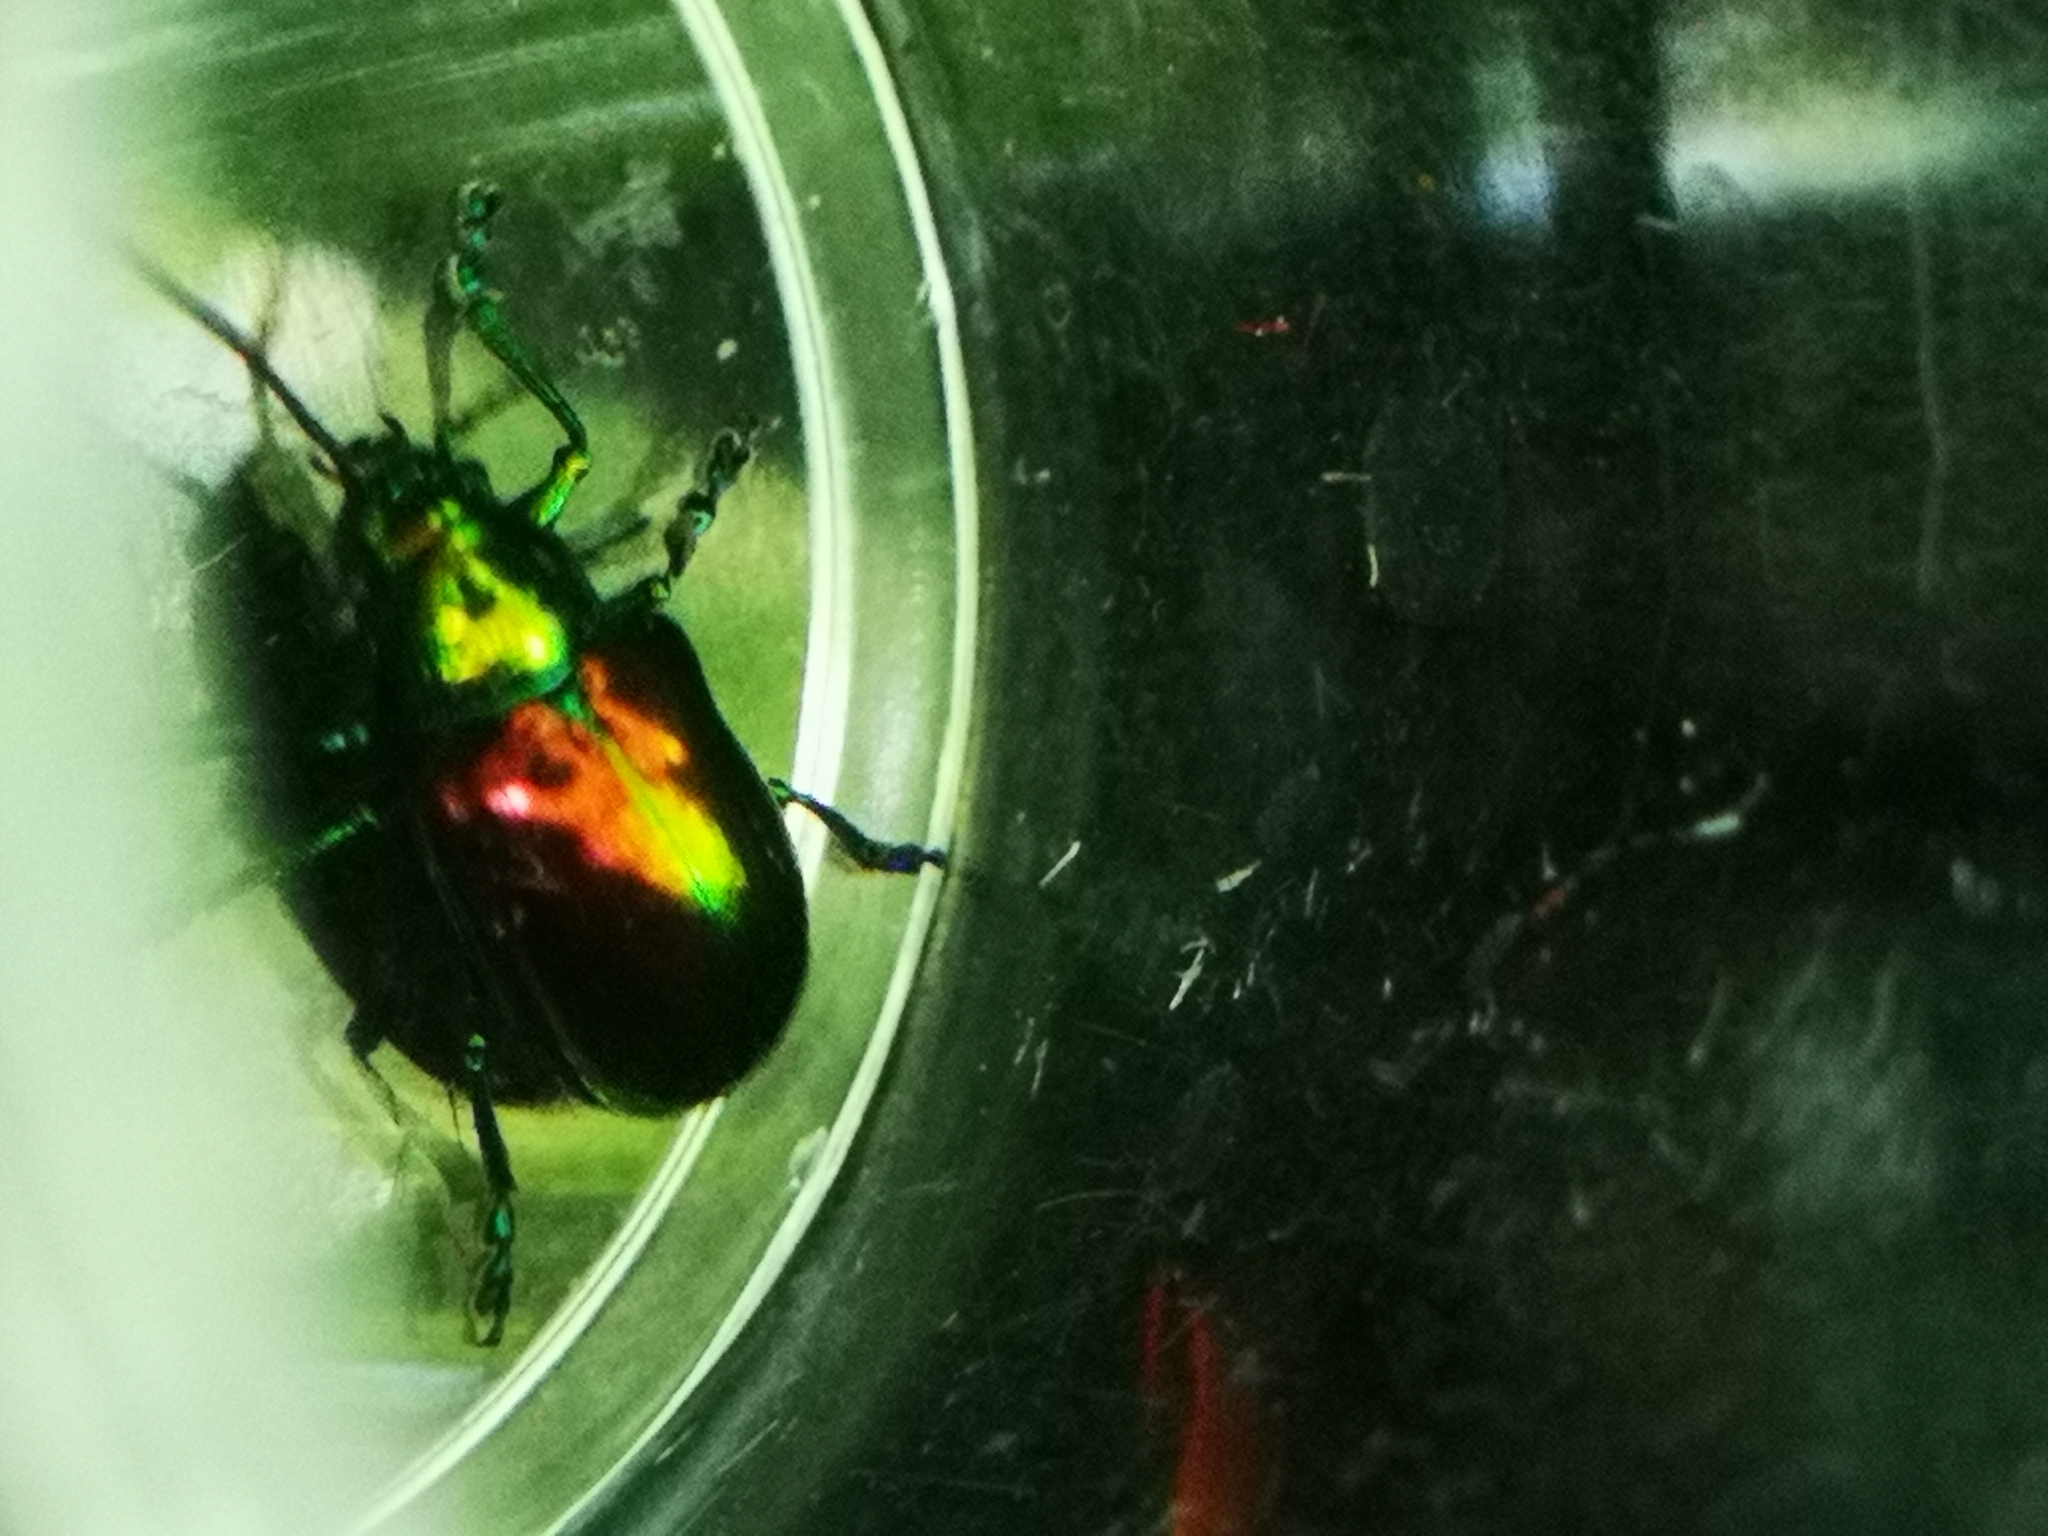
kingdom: Animalia
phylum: Arthropoda
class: Insecta
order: Coleoptera
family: Chrysomelidae
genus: Chrysochus
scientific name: Chrysochus auratus
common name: Dogbane leaf beetle
